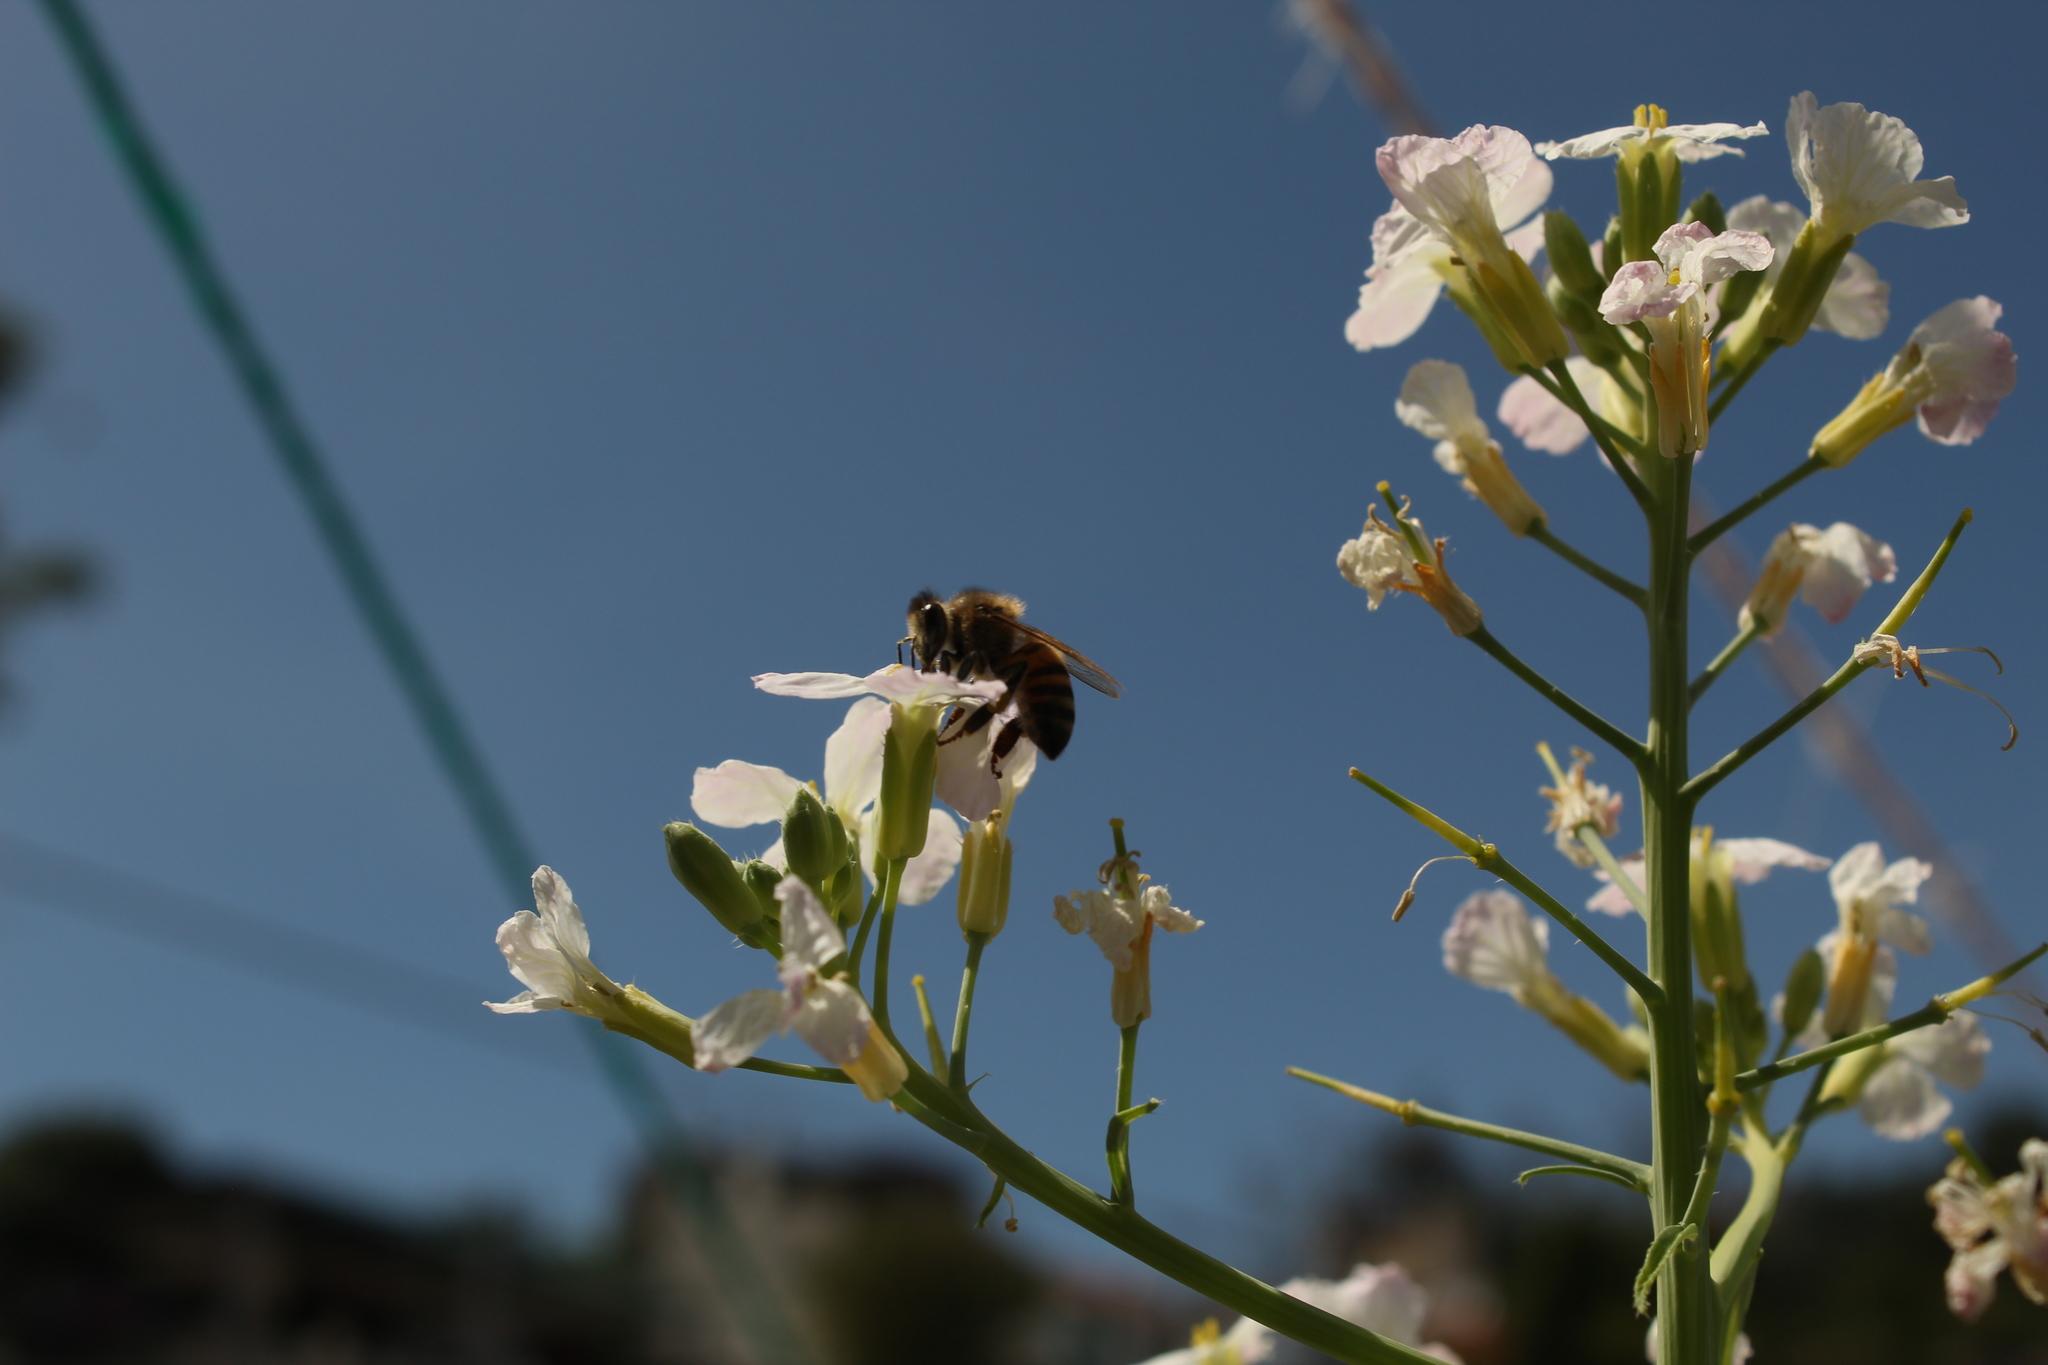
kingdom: Animalia
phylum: Arthropoda
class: Insecta
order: Hymenoptera
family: Apidae
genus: Apis
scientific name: Apis mellifera
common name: Honey bee
